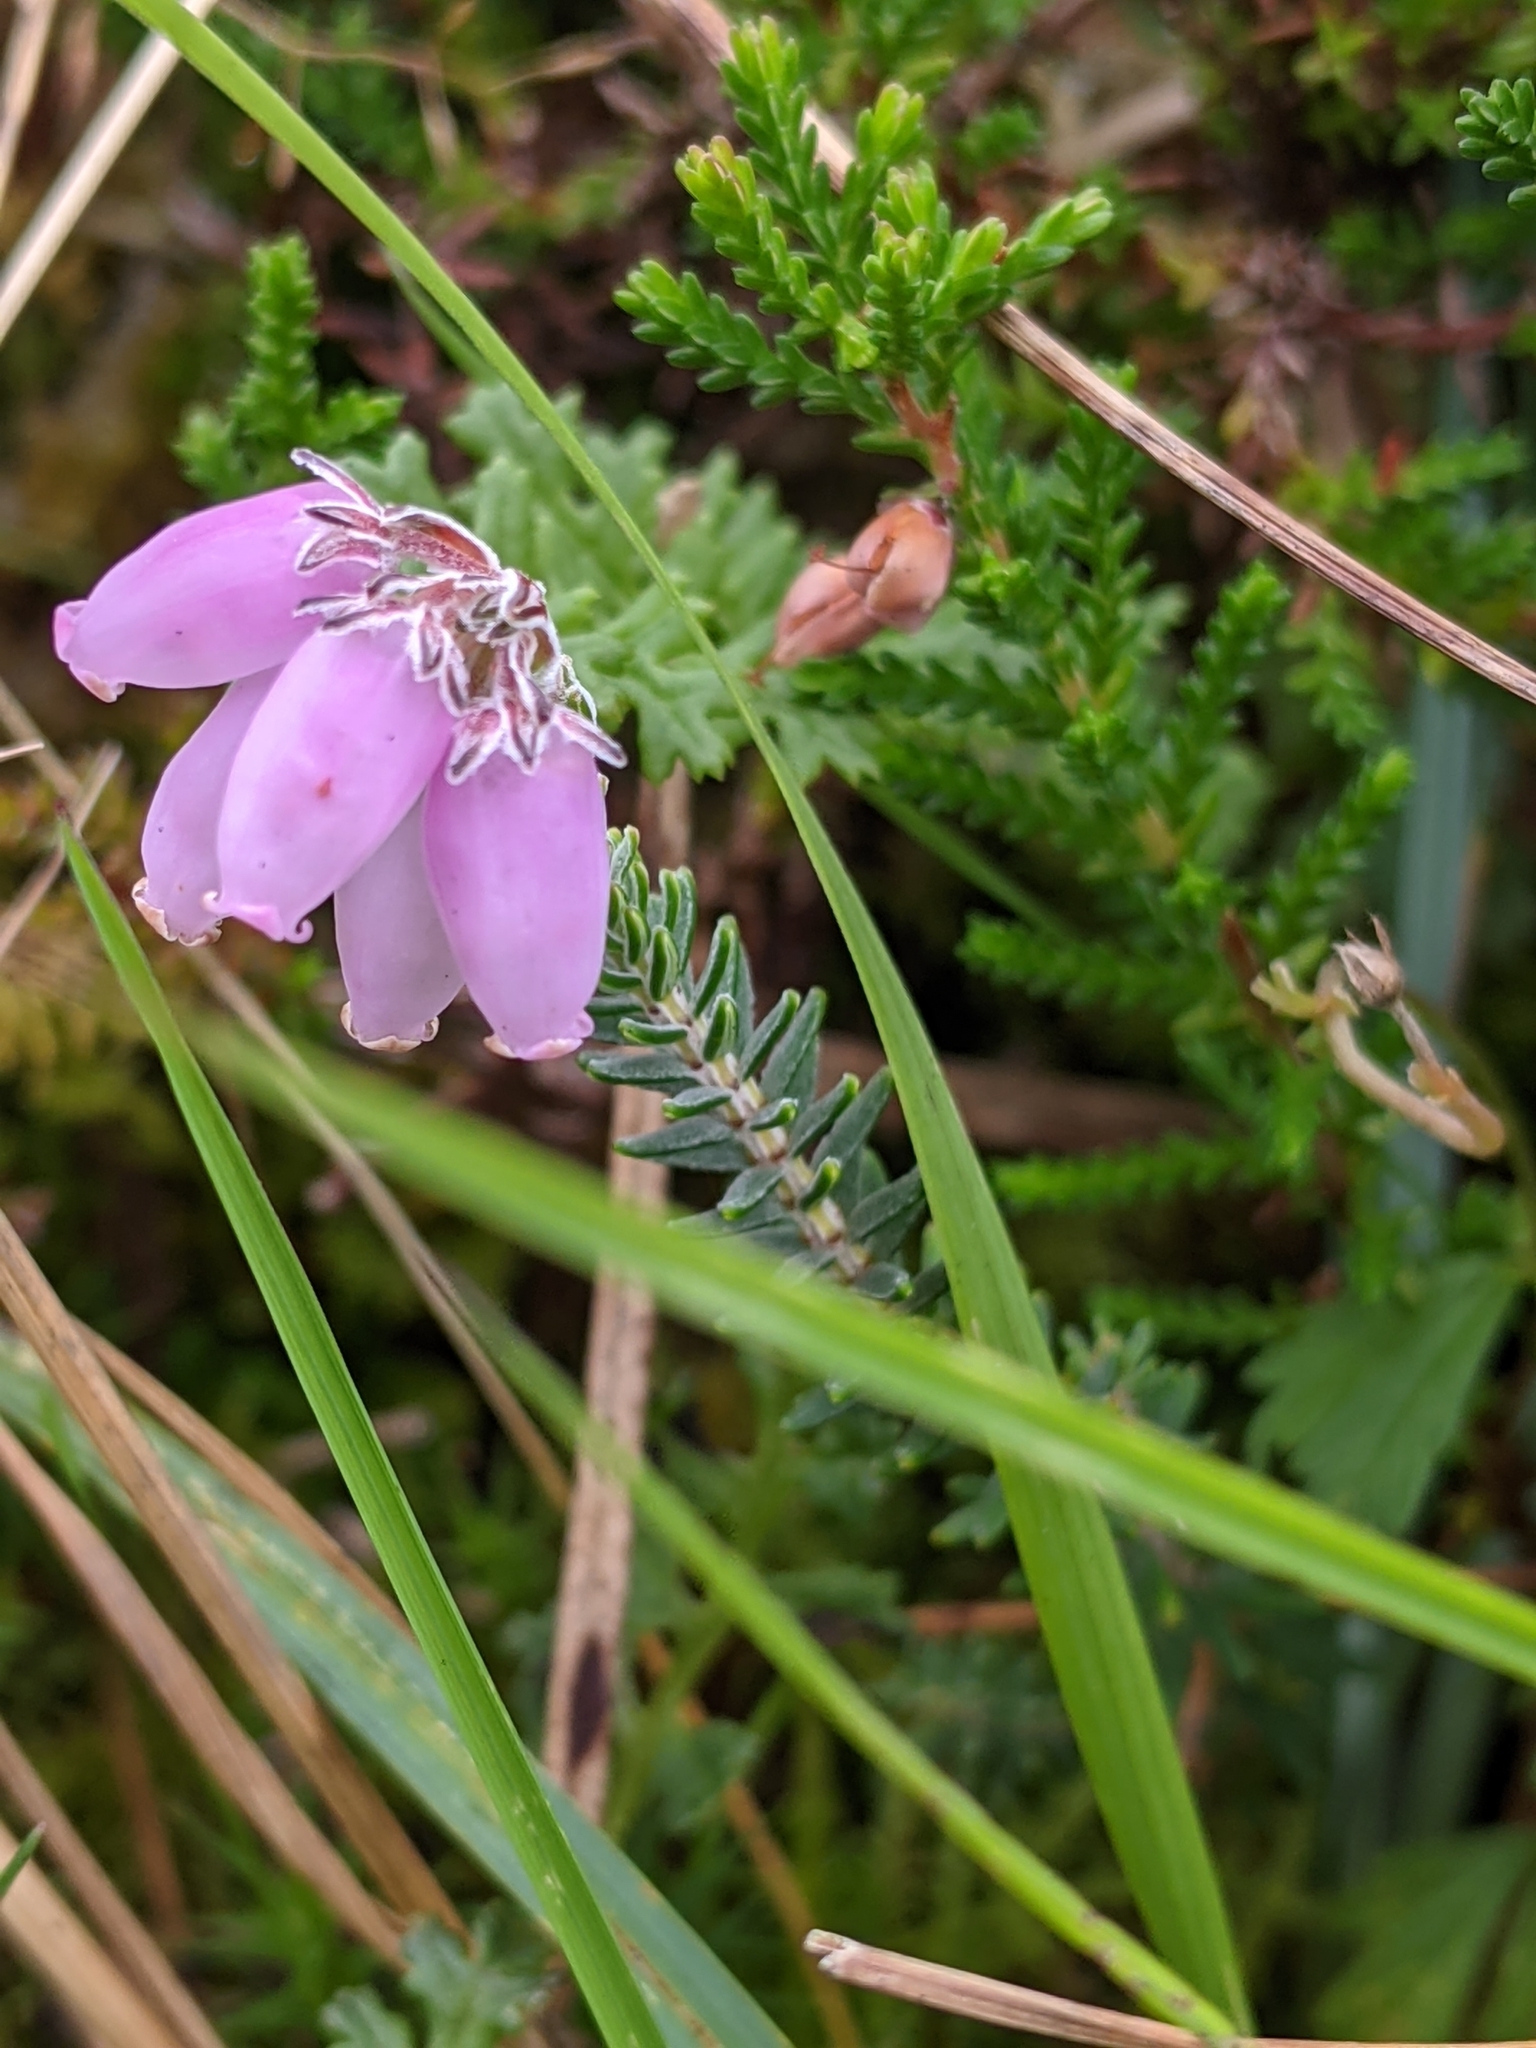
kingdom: Plantae
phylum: Tracheophyta
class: Magnoliopsida
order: Ericales
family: Ericaceae
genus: Erica
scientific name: Erica tetralix
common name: Cross-leaved heath
